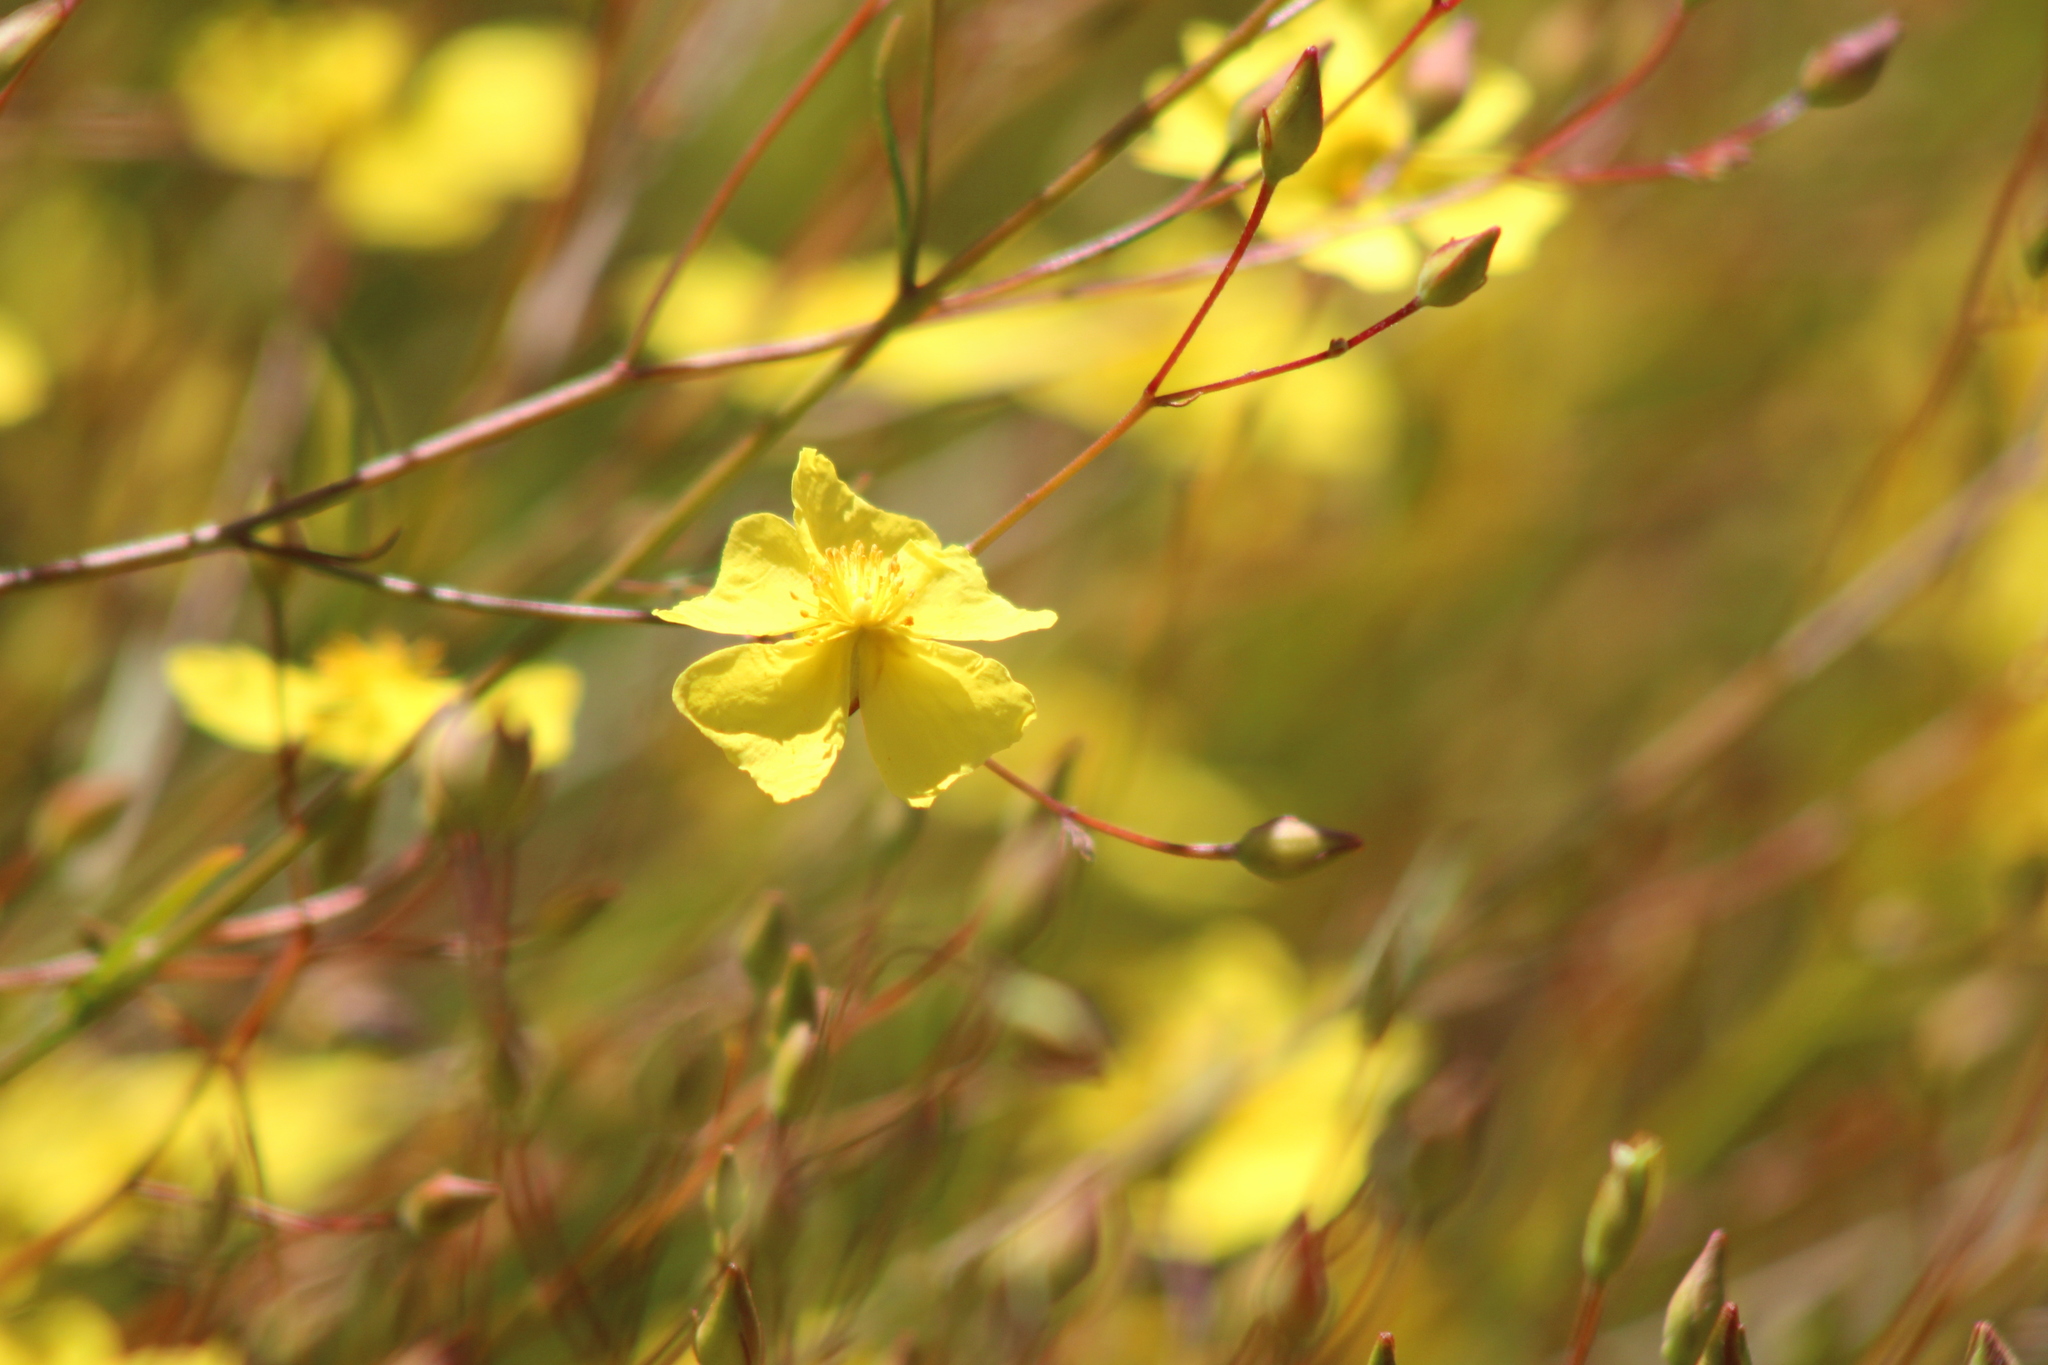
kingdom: Plantae
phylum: Tracheophyta
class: Magnoliopsida
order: Malvales
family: Cistaceae
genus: Crocanthemum
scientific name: Crocanthemum scoparium
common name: Broom-rose
